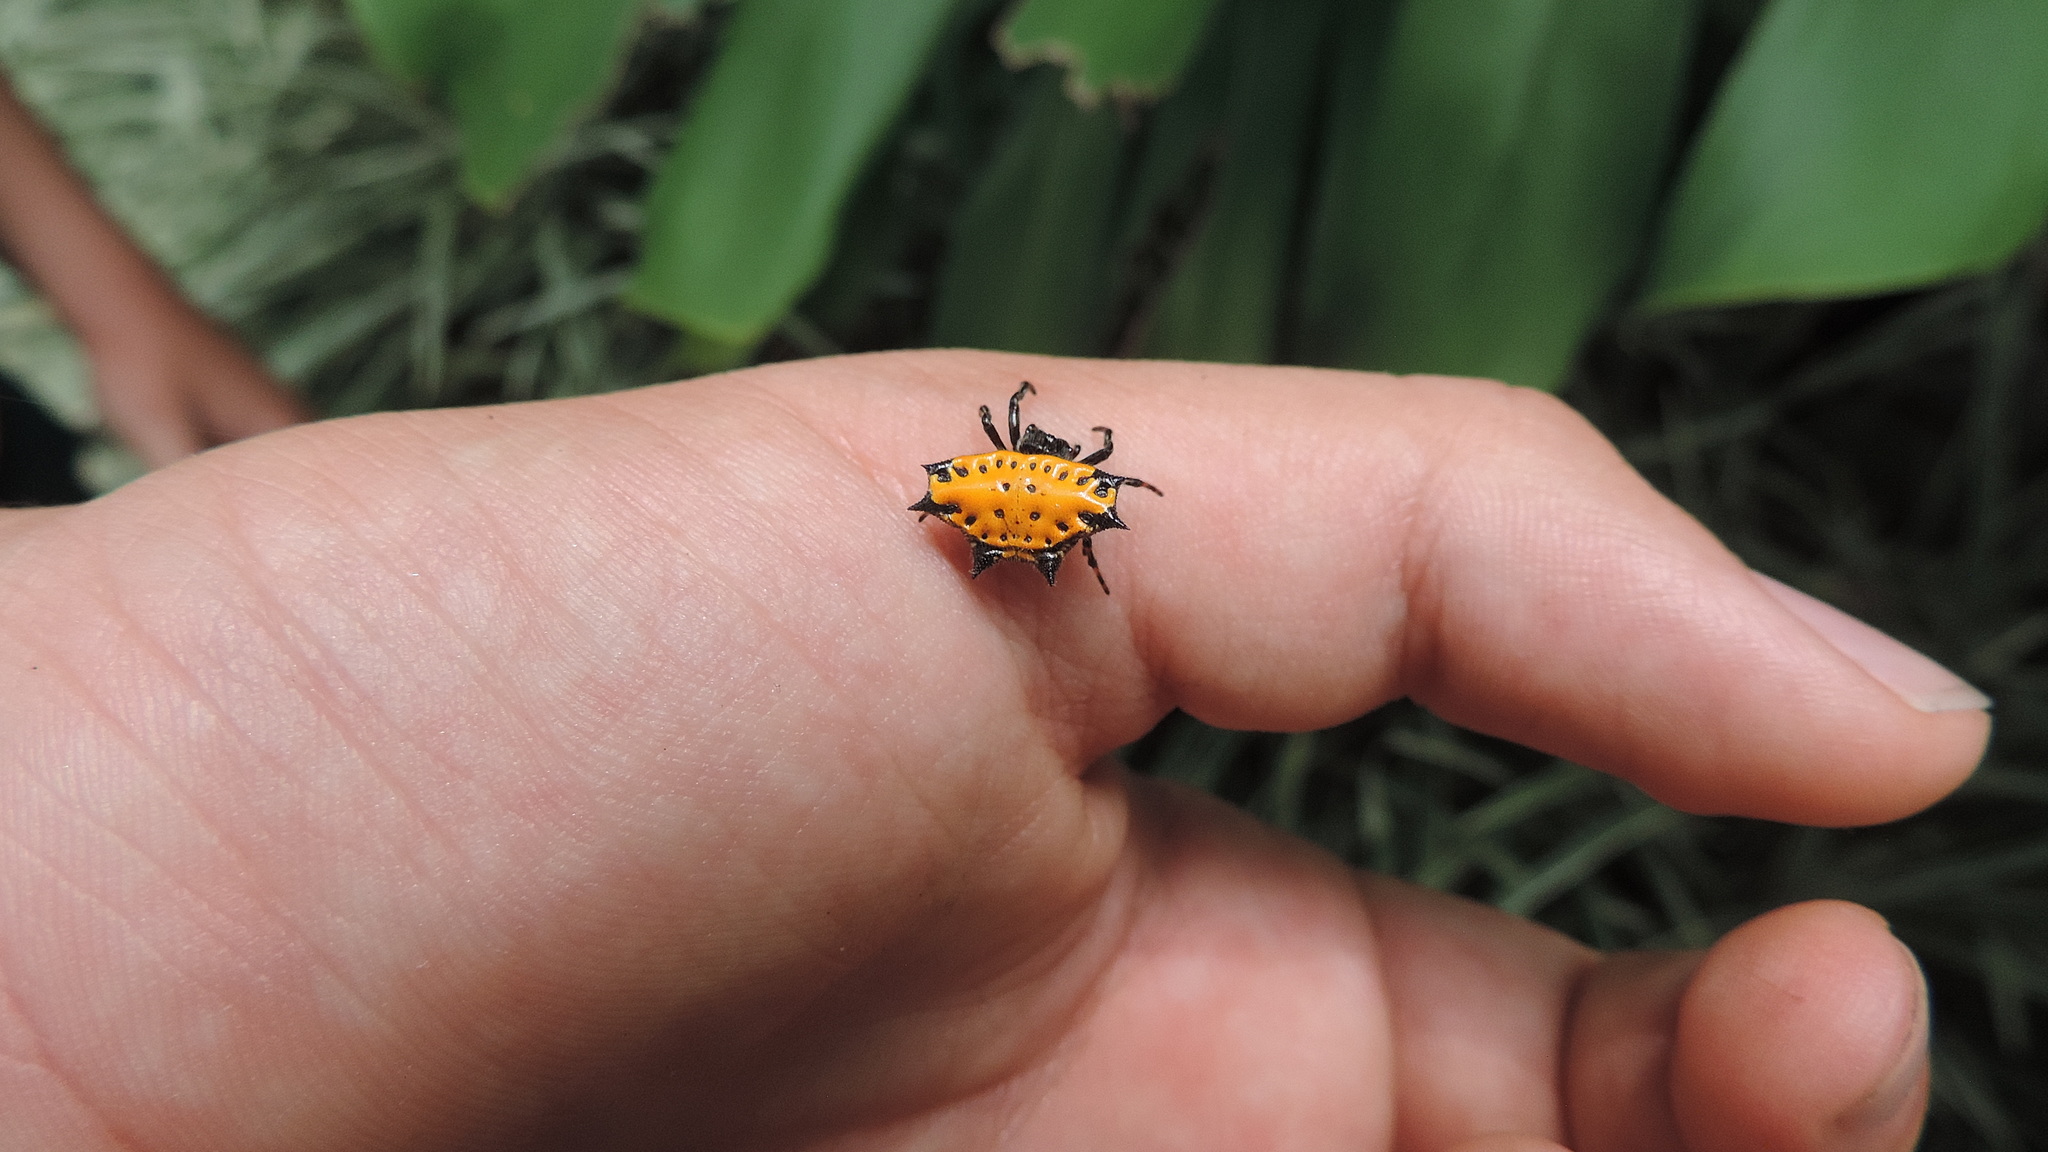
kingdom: Animalia
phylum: Arthropoda
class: Arachnida
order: Araneae
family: Araneidae
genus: Gasteracantha
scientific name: Gasteracantha cancriformis
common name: Orb weavers
